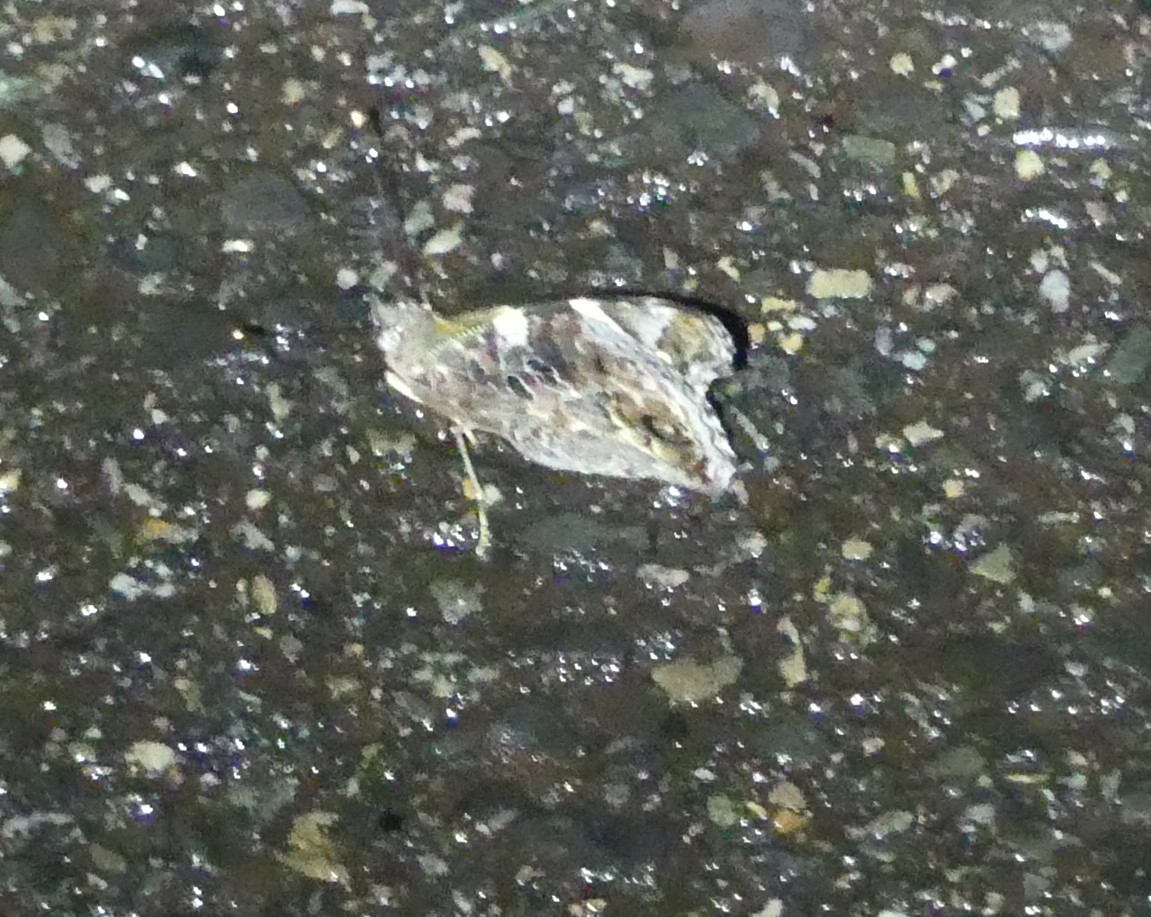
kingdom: Animalia
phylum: Arthropoda
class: Insecta
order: Lepidoptera
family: Nymphalidae
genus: Vanessa
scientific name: Vanessa itea
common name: Yellow admiral
